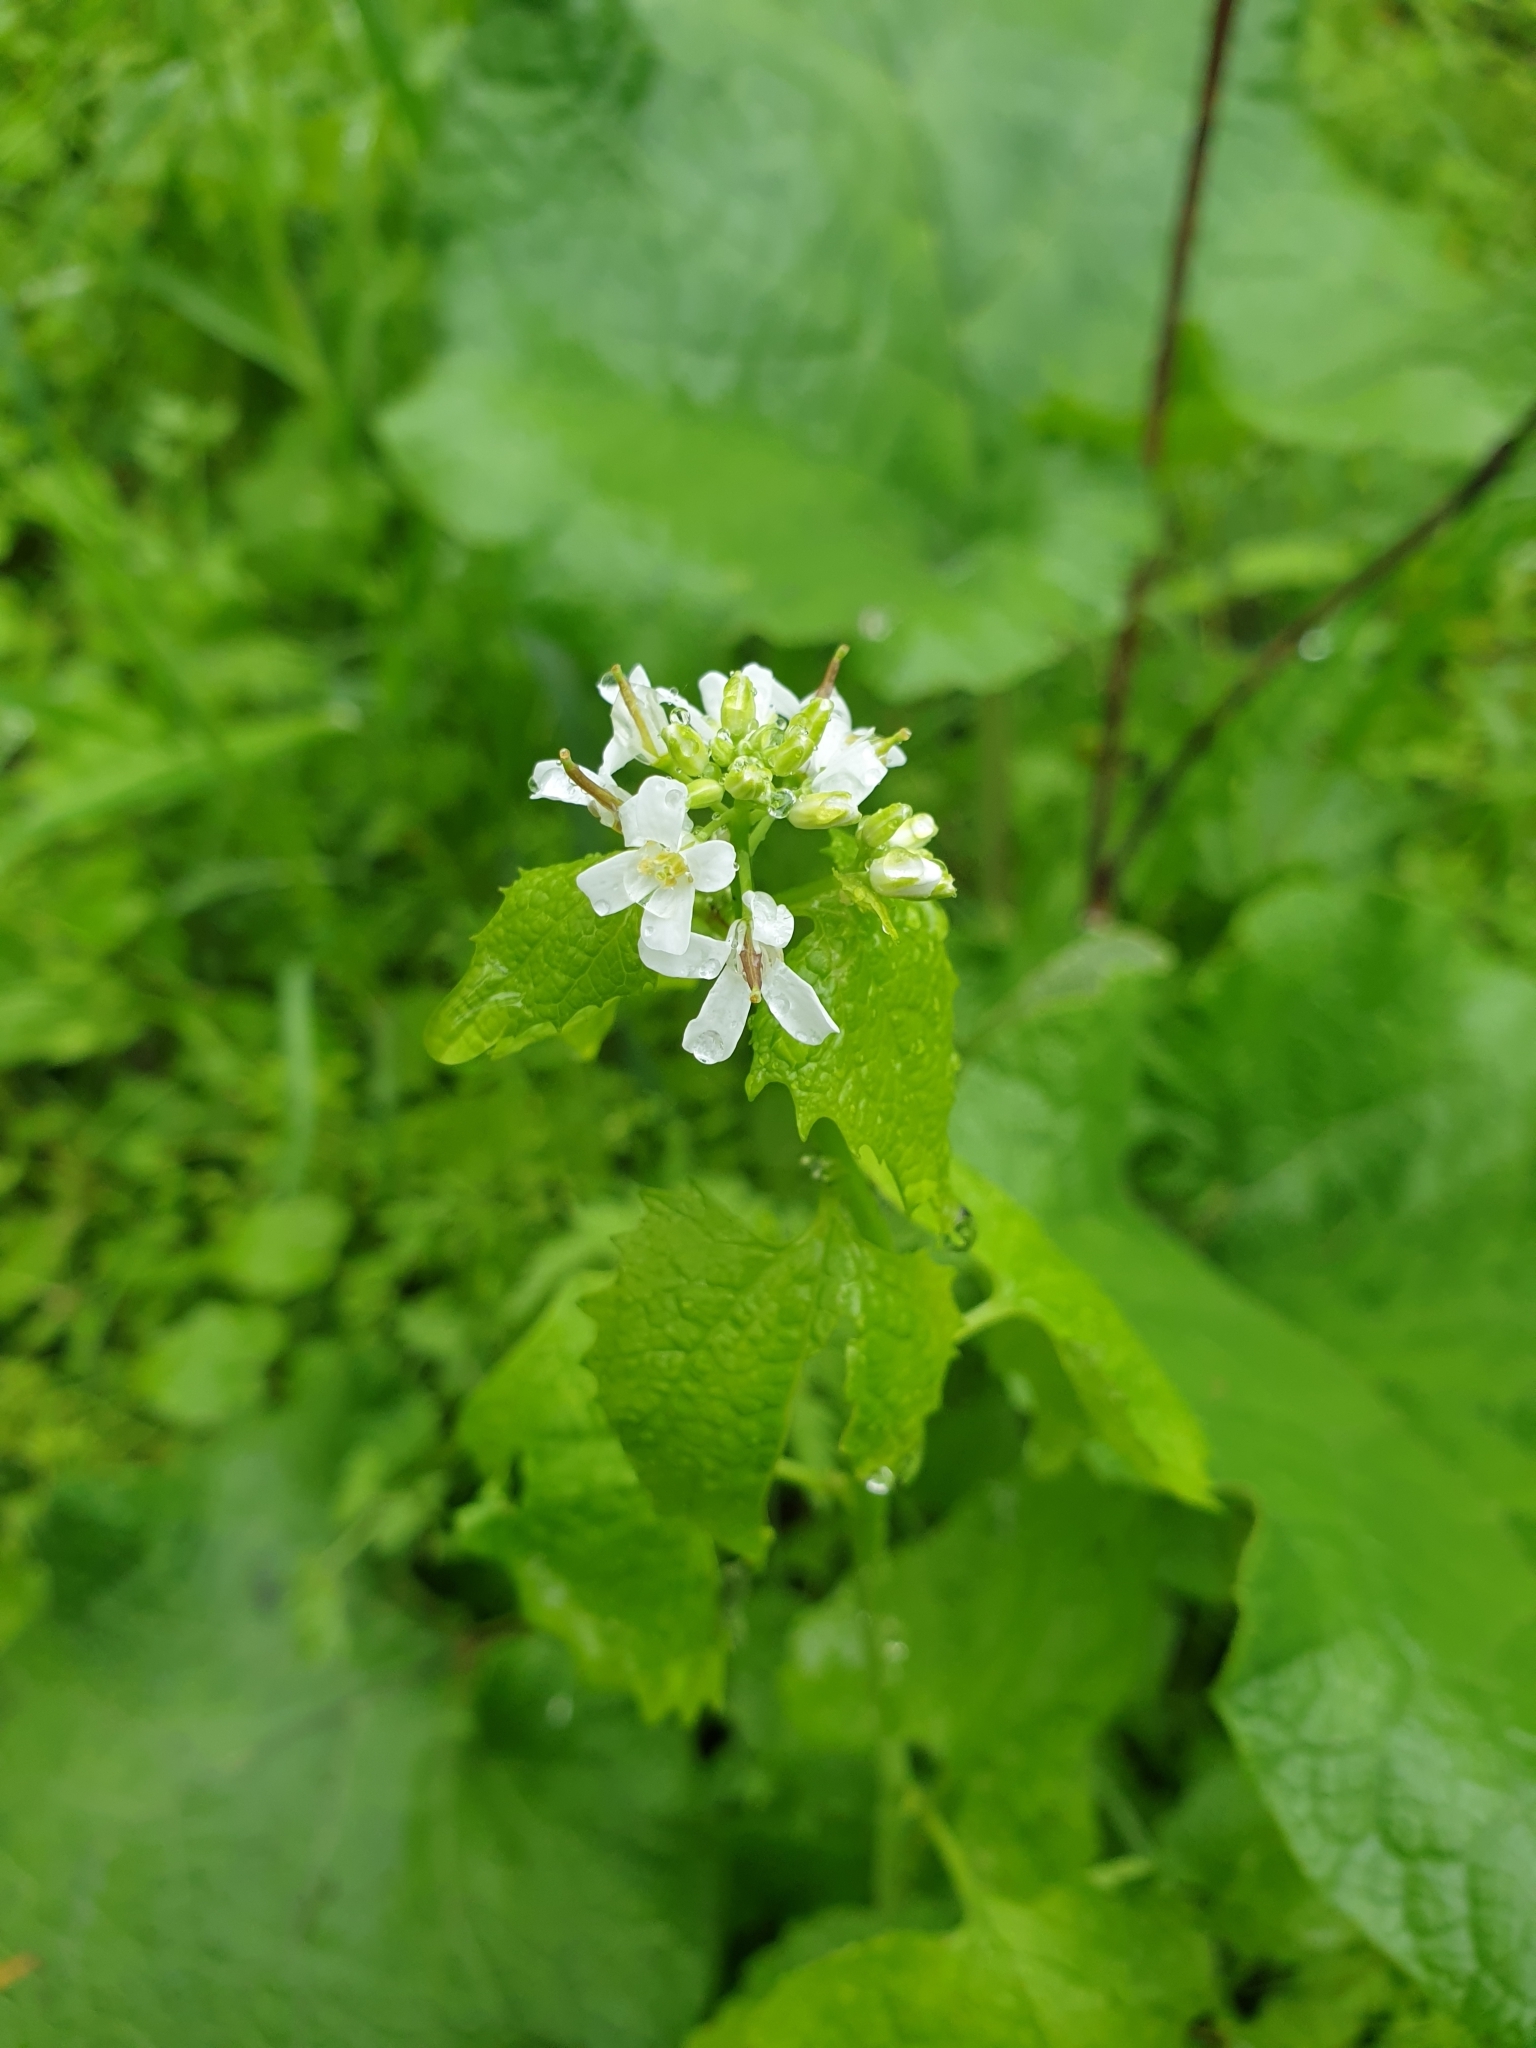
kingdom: Plantae
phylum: Tracheophyta
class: Magnoliopsida
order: Brassicales
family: Brassicaceae
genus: Alliaria
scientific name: Alliaria petiolata
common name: Garlic mustard
